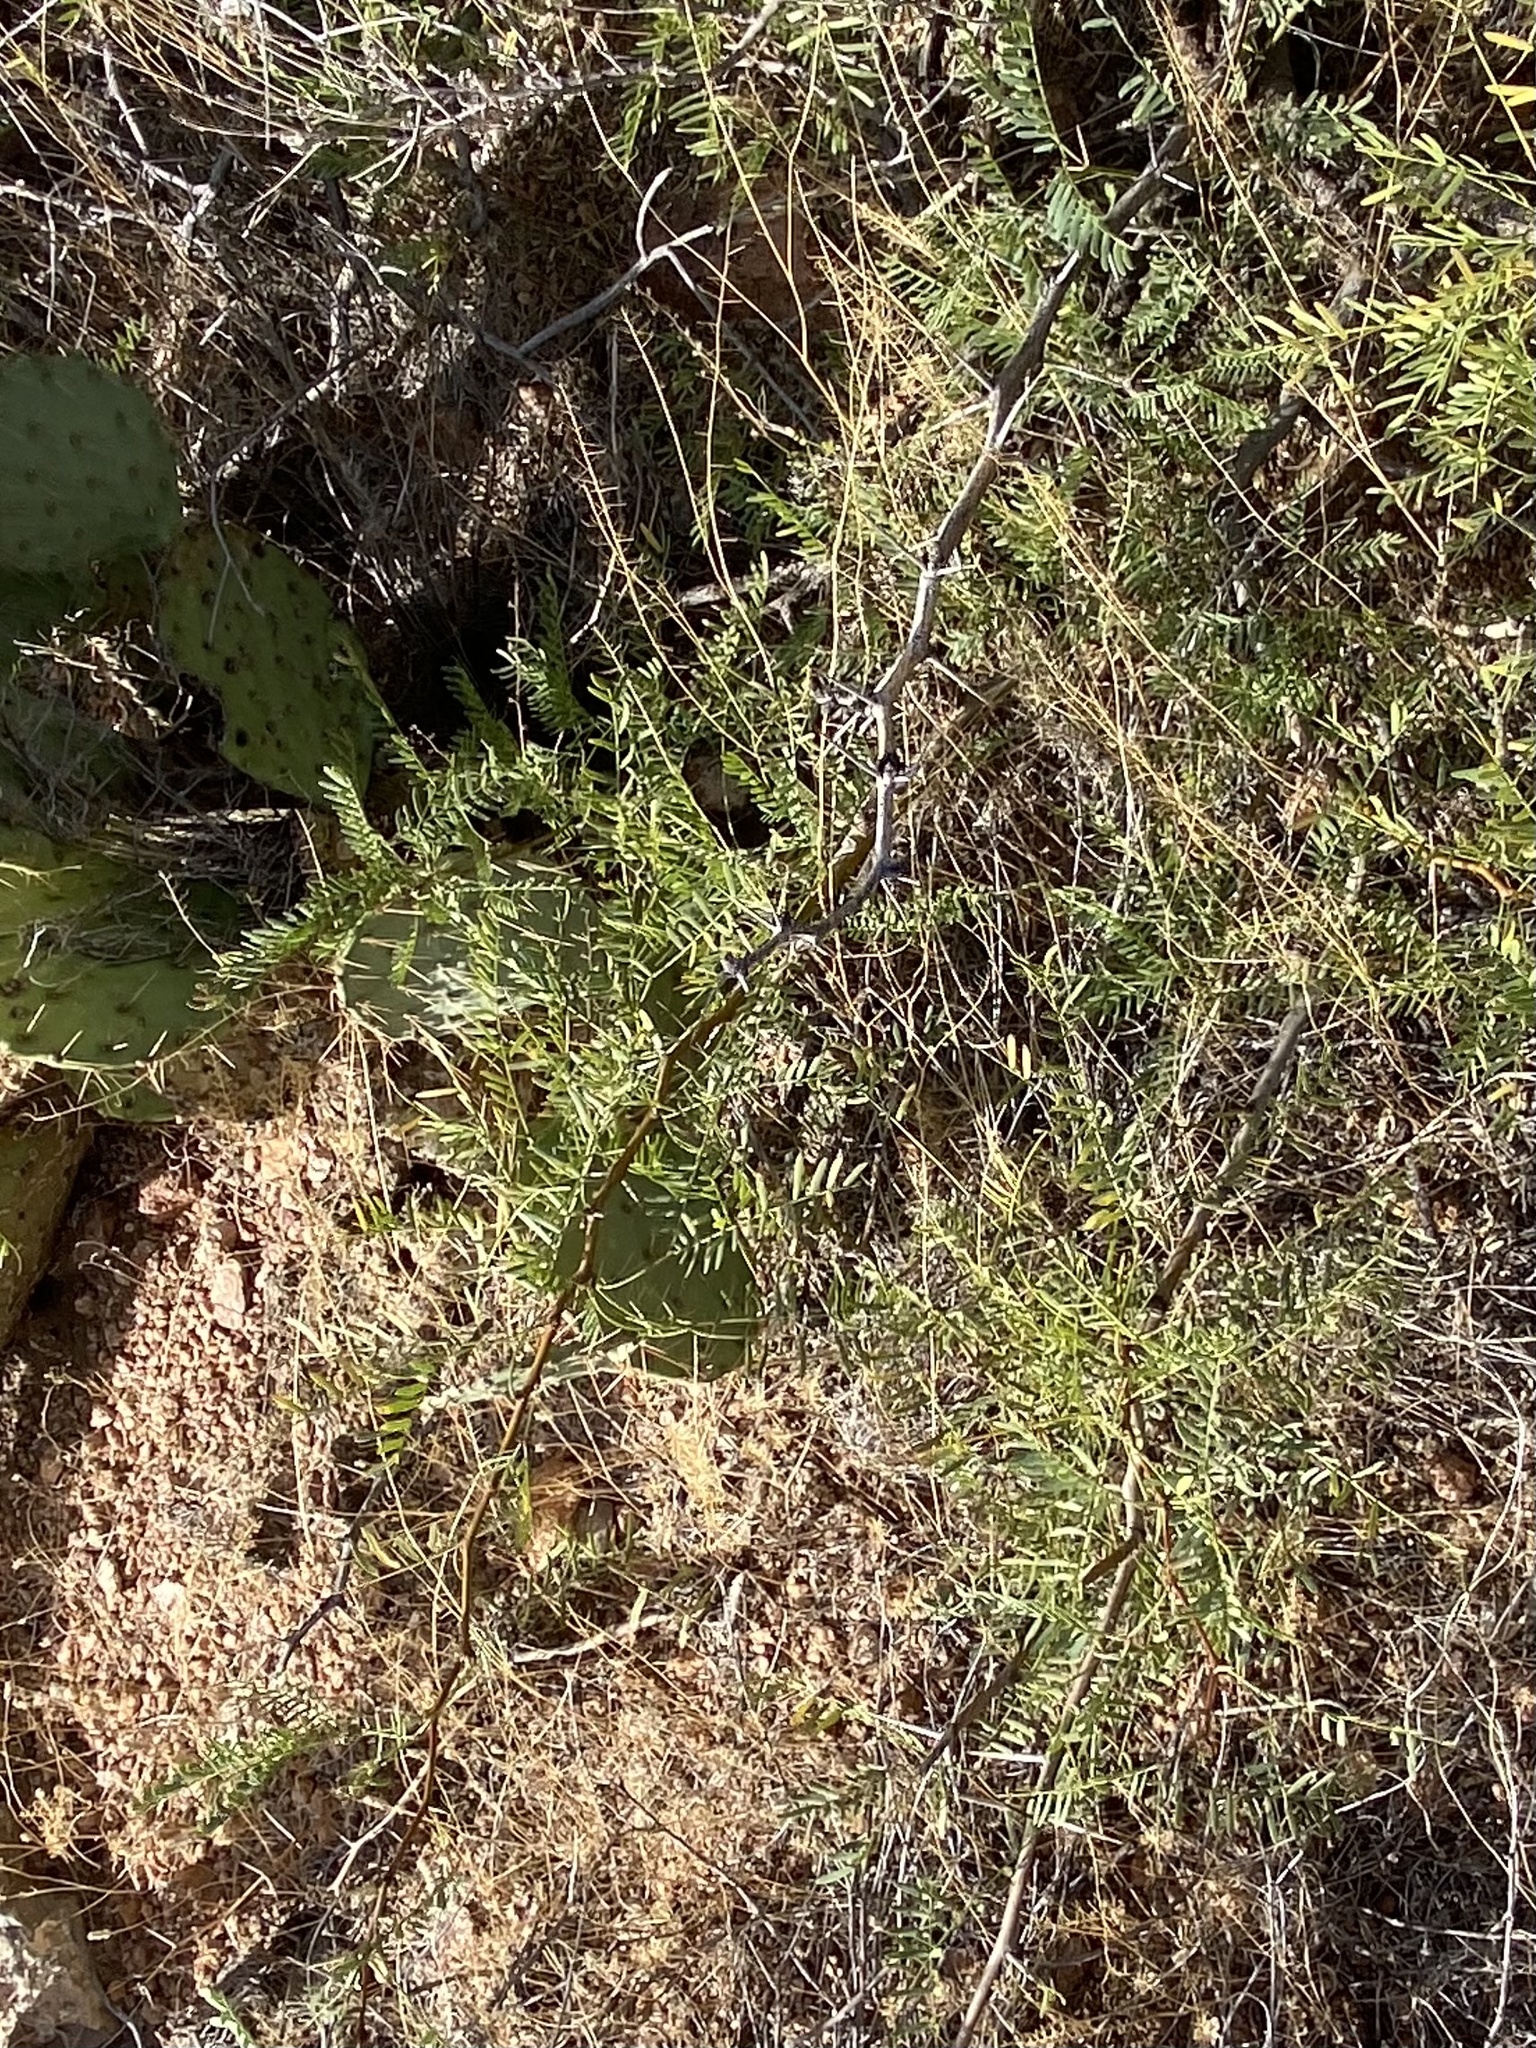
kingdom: Plantae
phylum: Tracheophyta
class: Magnoliopsida
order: Fabales
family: Fabaceae
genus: Prosopis
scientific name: Prosopis glandulosa
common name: Honey mesquite
